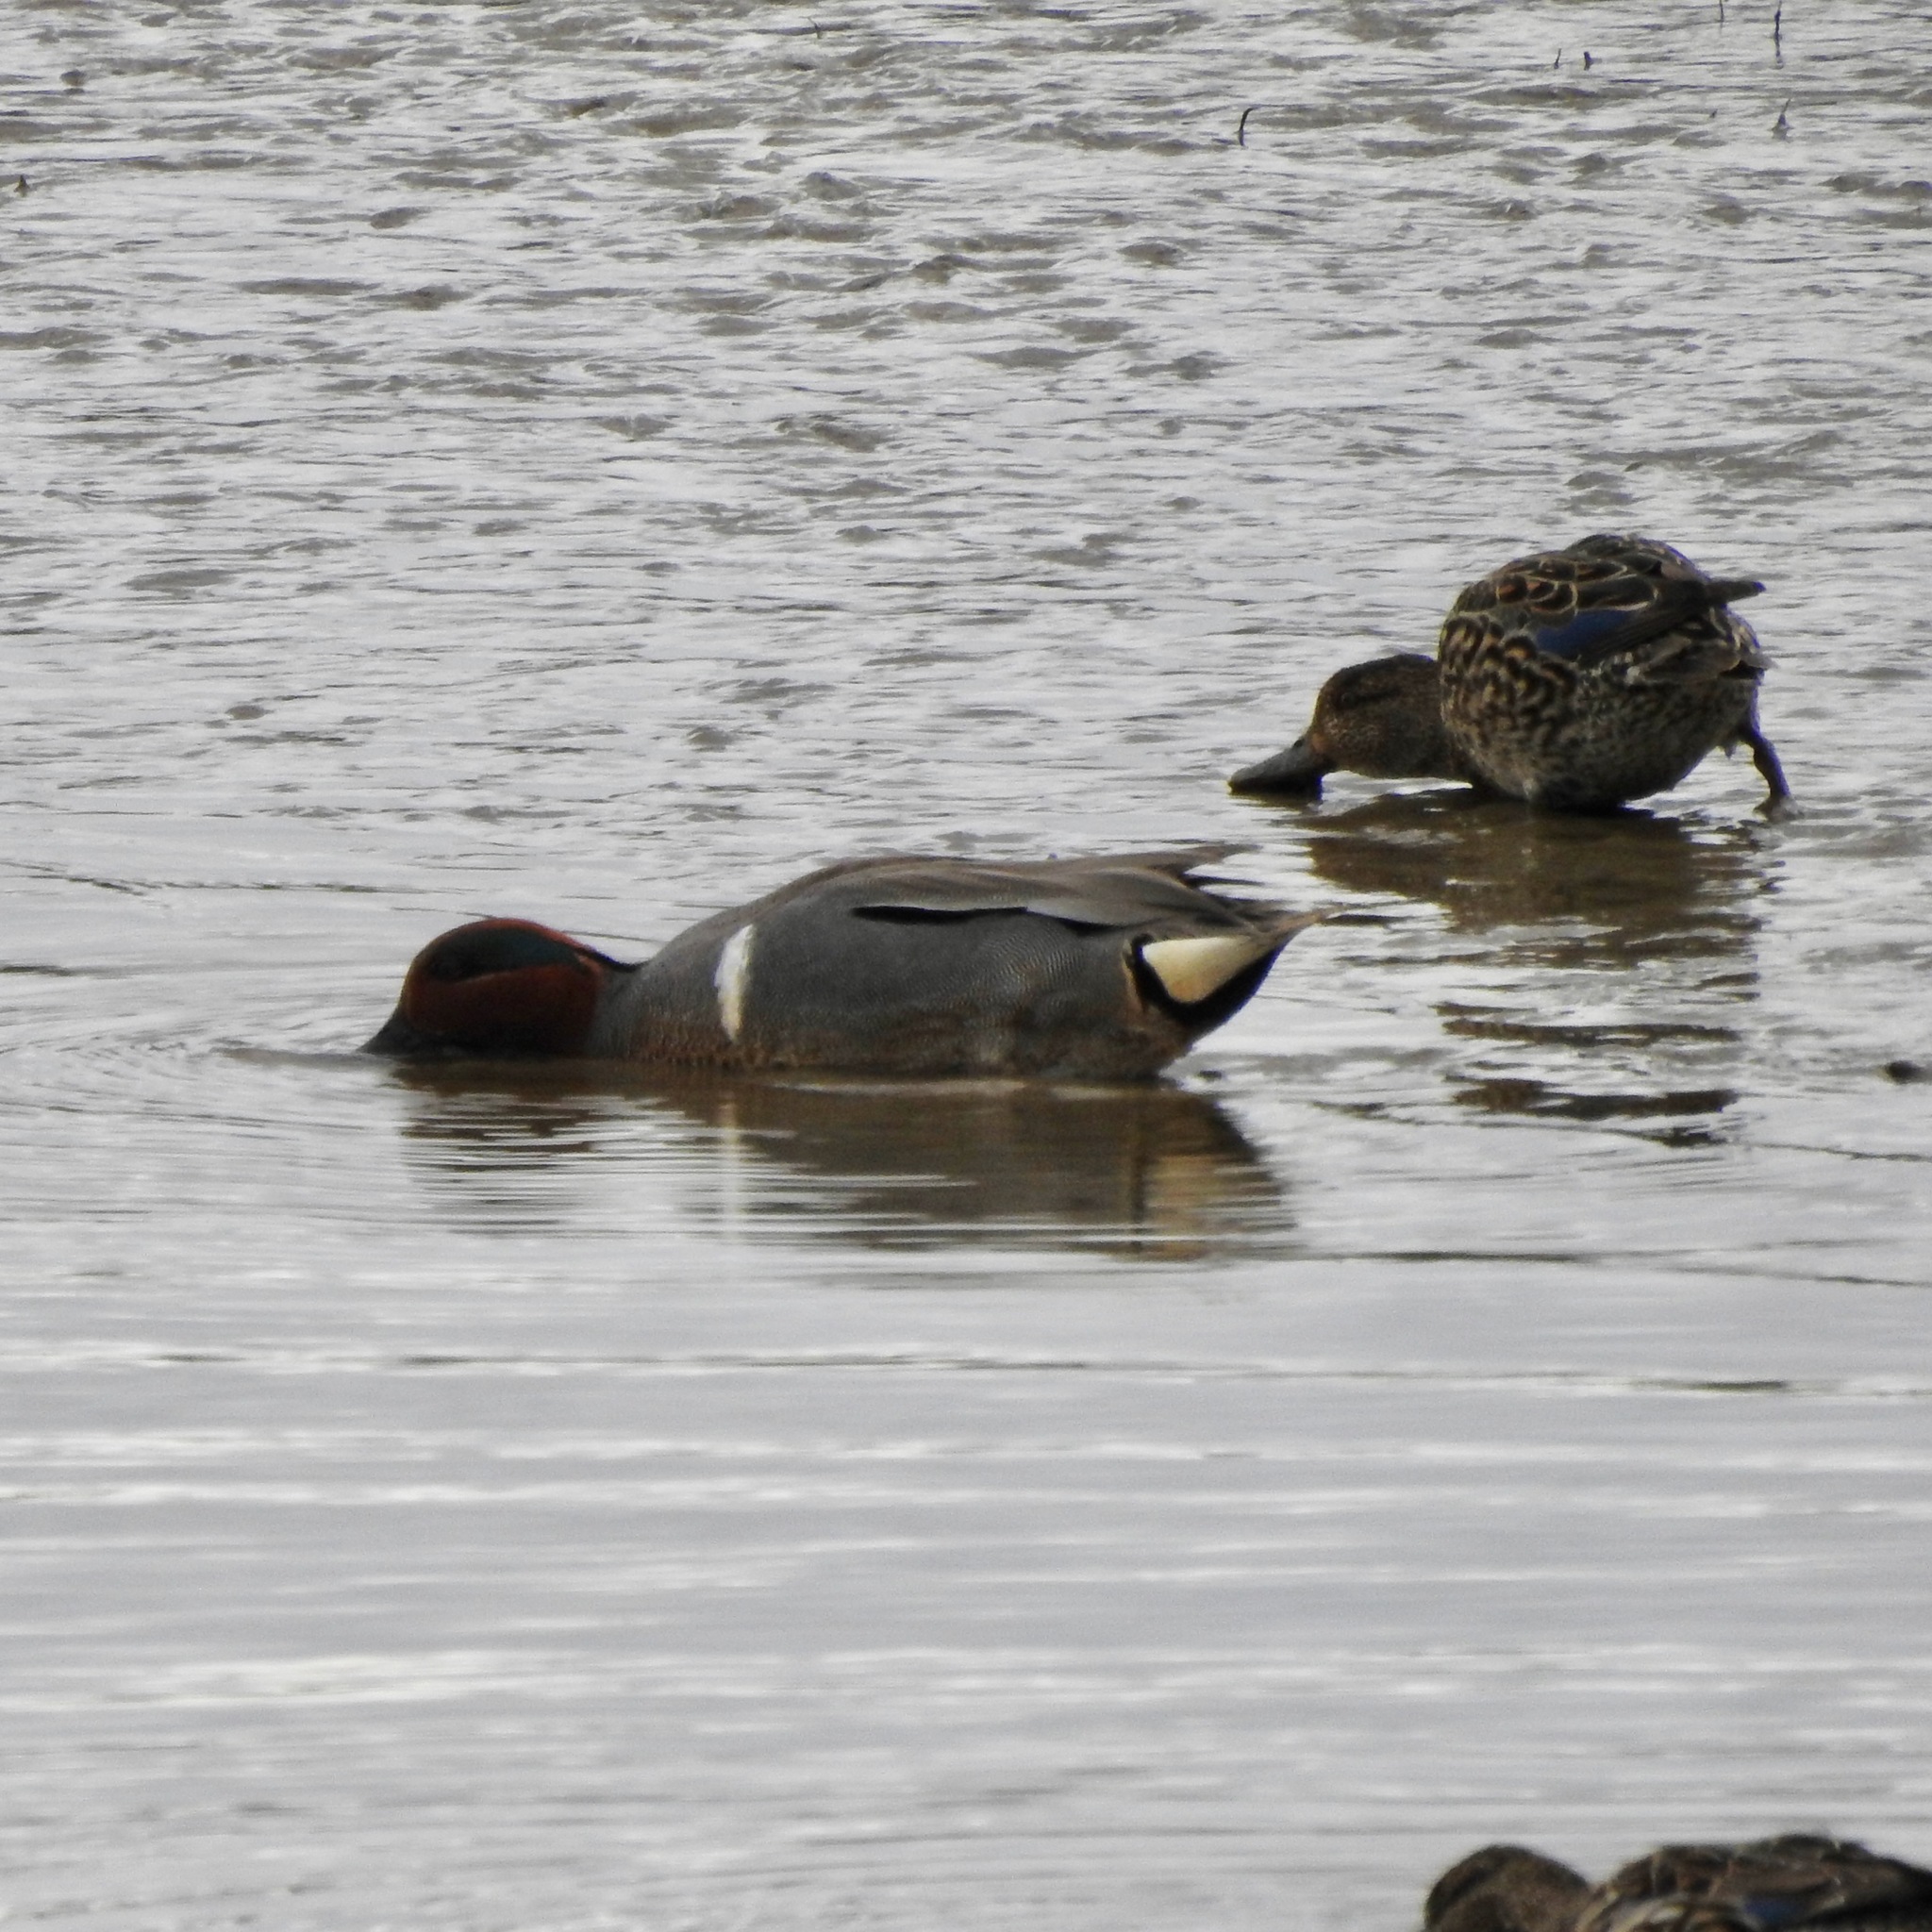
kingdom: Animalia
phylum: Chordata
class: Aves
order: Anseriformes
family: Anatidae
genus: Anas
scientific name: Anas crecca
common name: Eurasian teal
